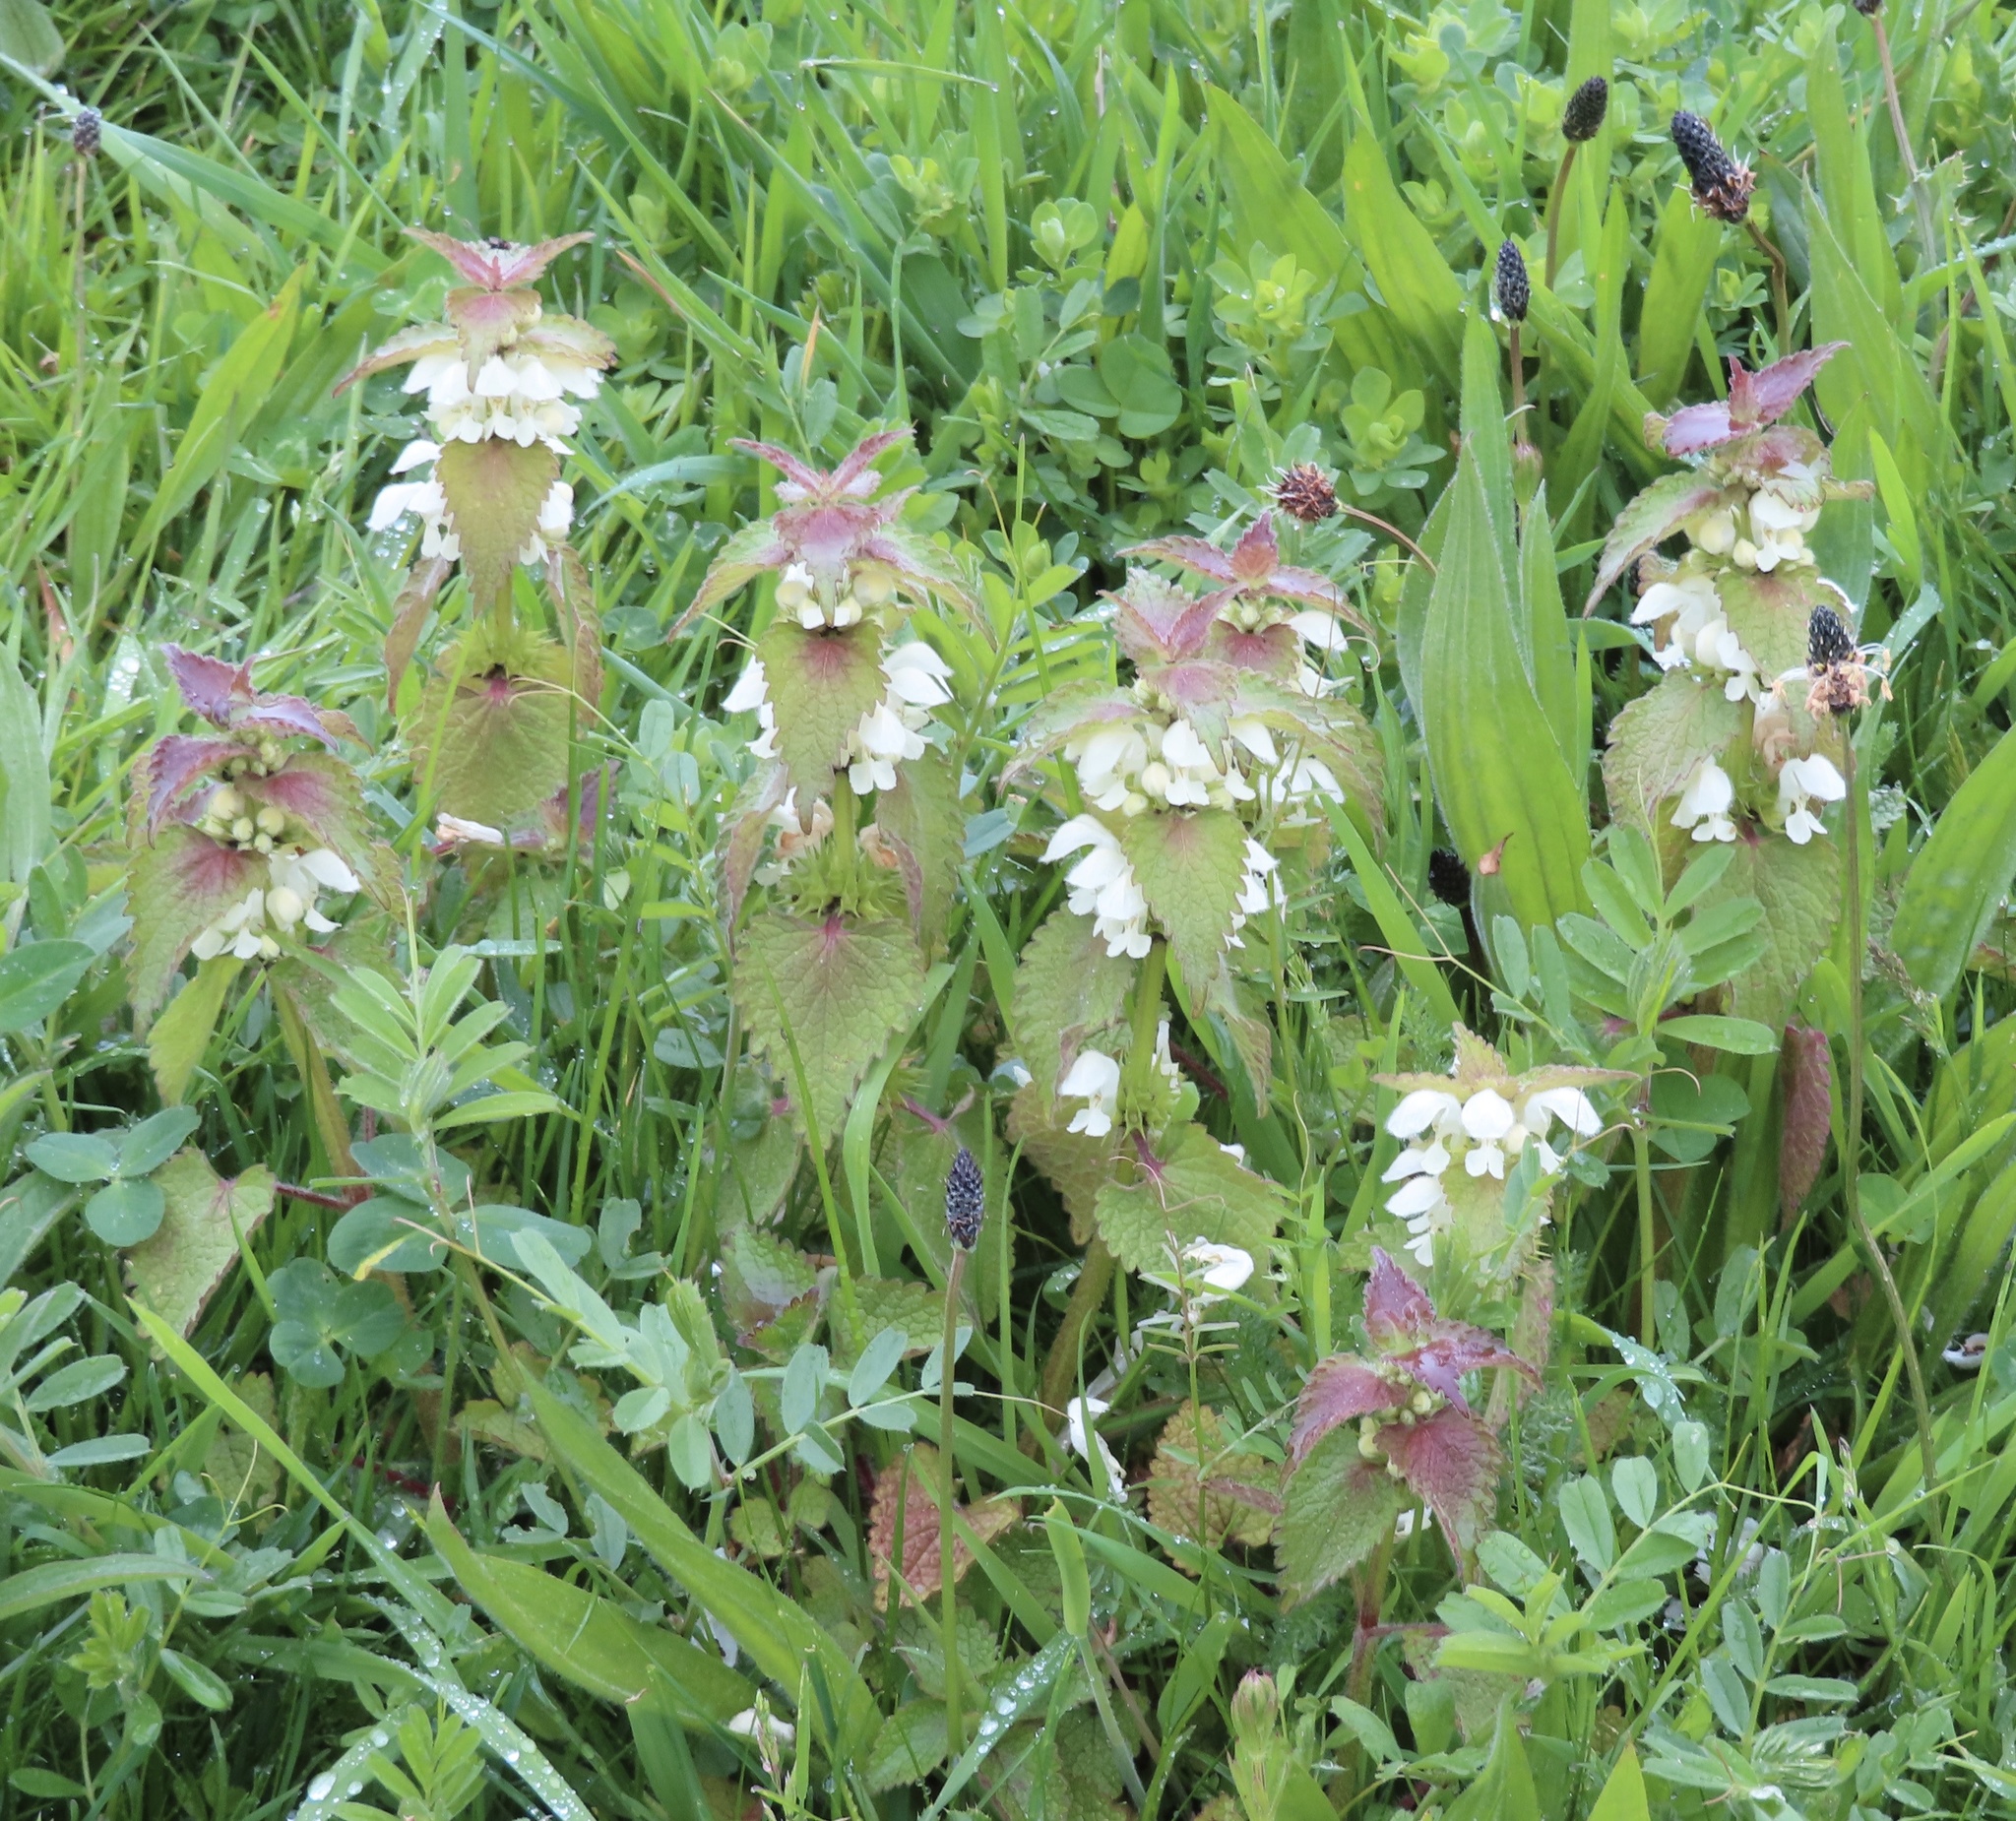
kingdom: Plantae
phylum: Tracheophyta
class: Magnoliopsida
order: Lamiales
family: Lamiaceae
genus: Lamium
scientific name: Lamium album
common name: White dead-nettle
